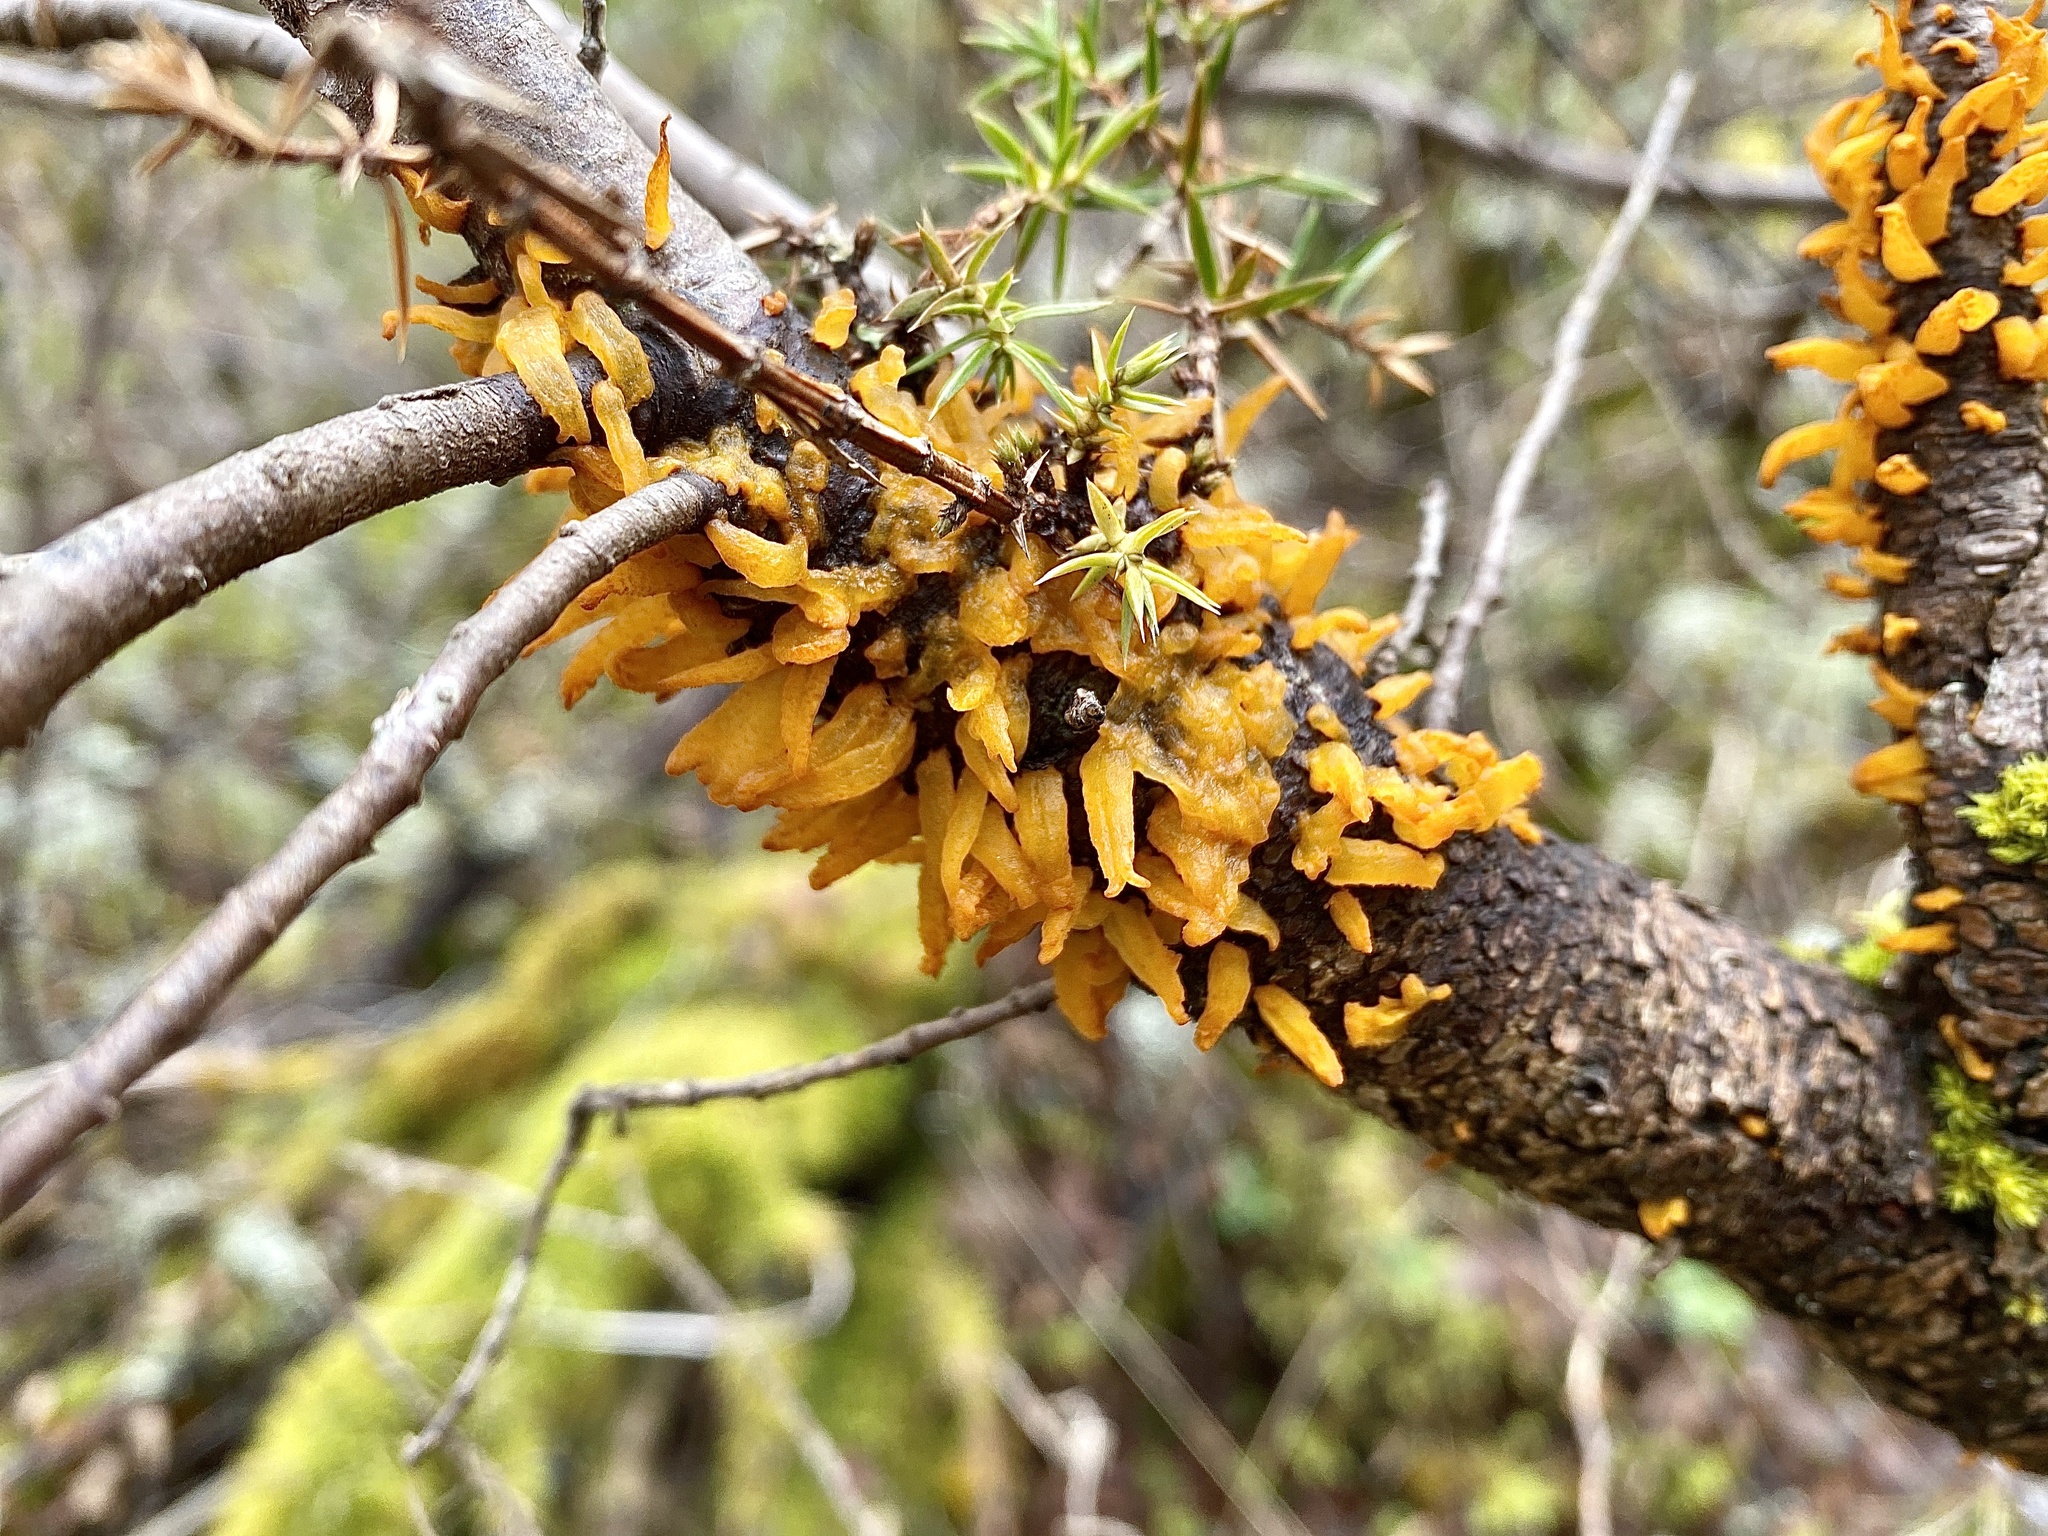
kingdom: Fungi
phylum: Basidiomycota
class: Pucciniomycetes
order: Pucciniales
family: Gymnosporangiaceae
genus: Gymnosporangium
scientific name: Gymnosporangium clavariiforme
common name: Tongues of fire
